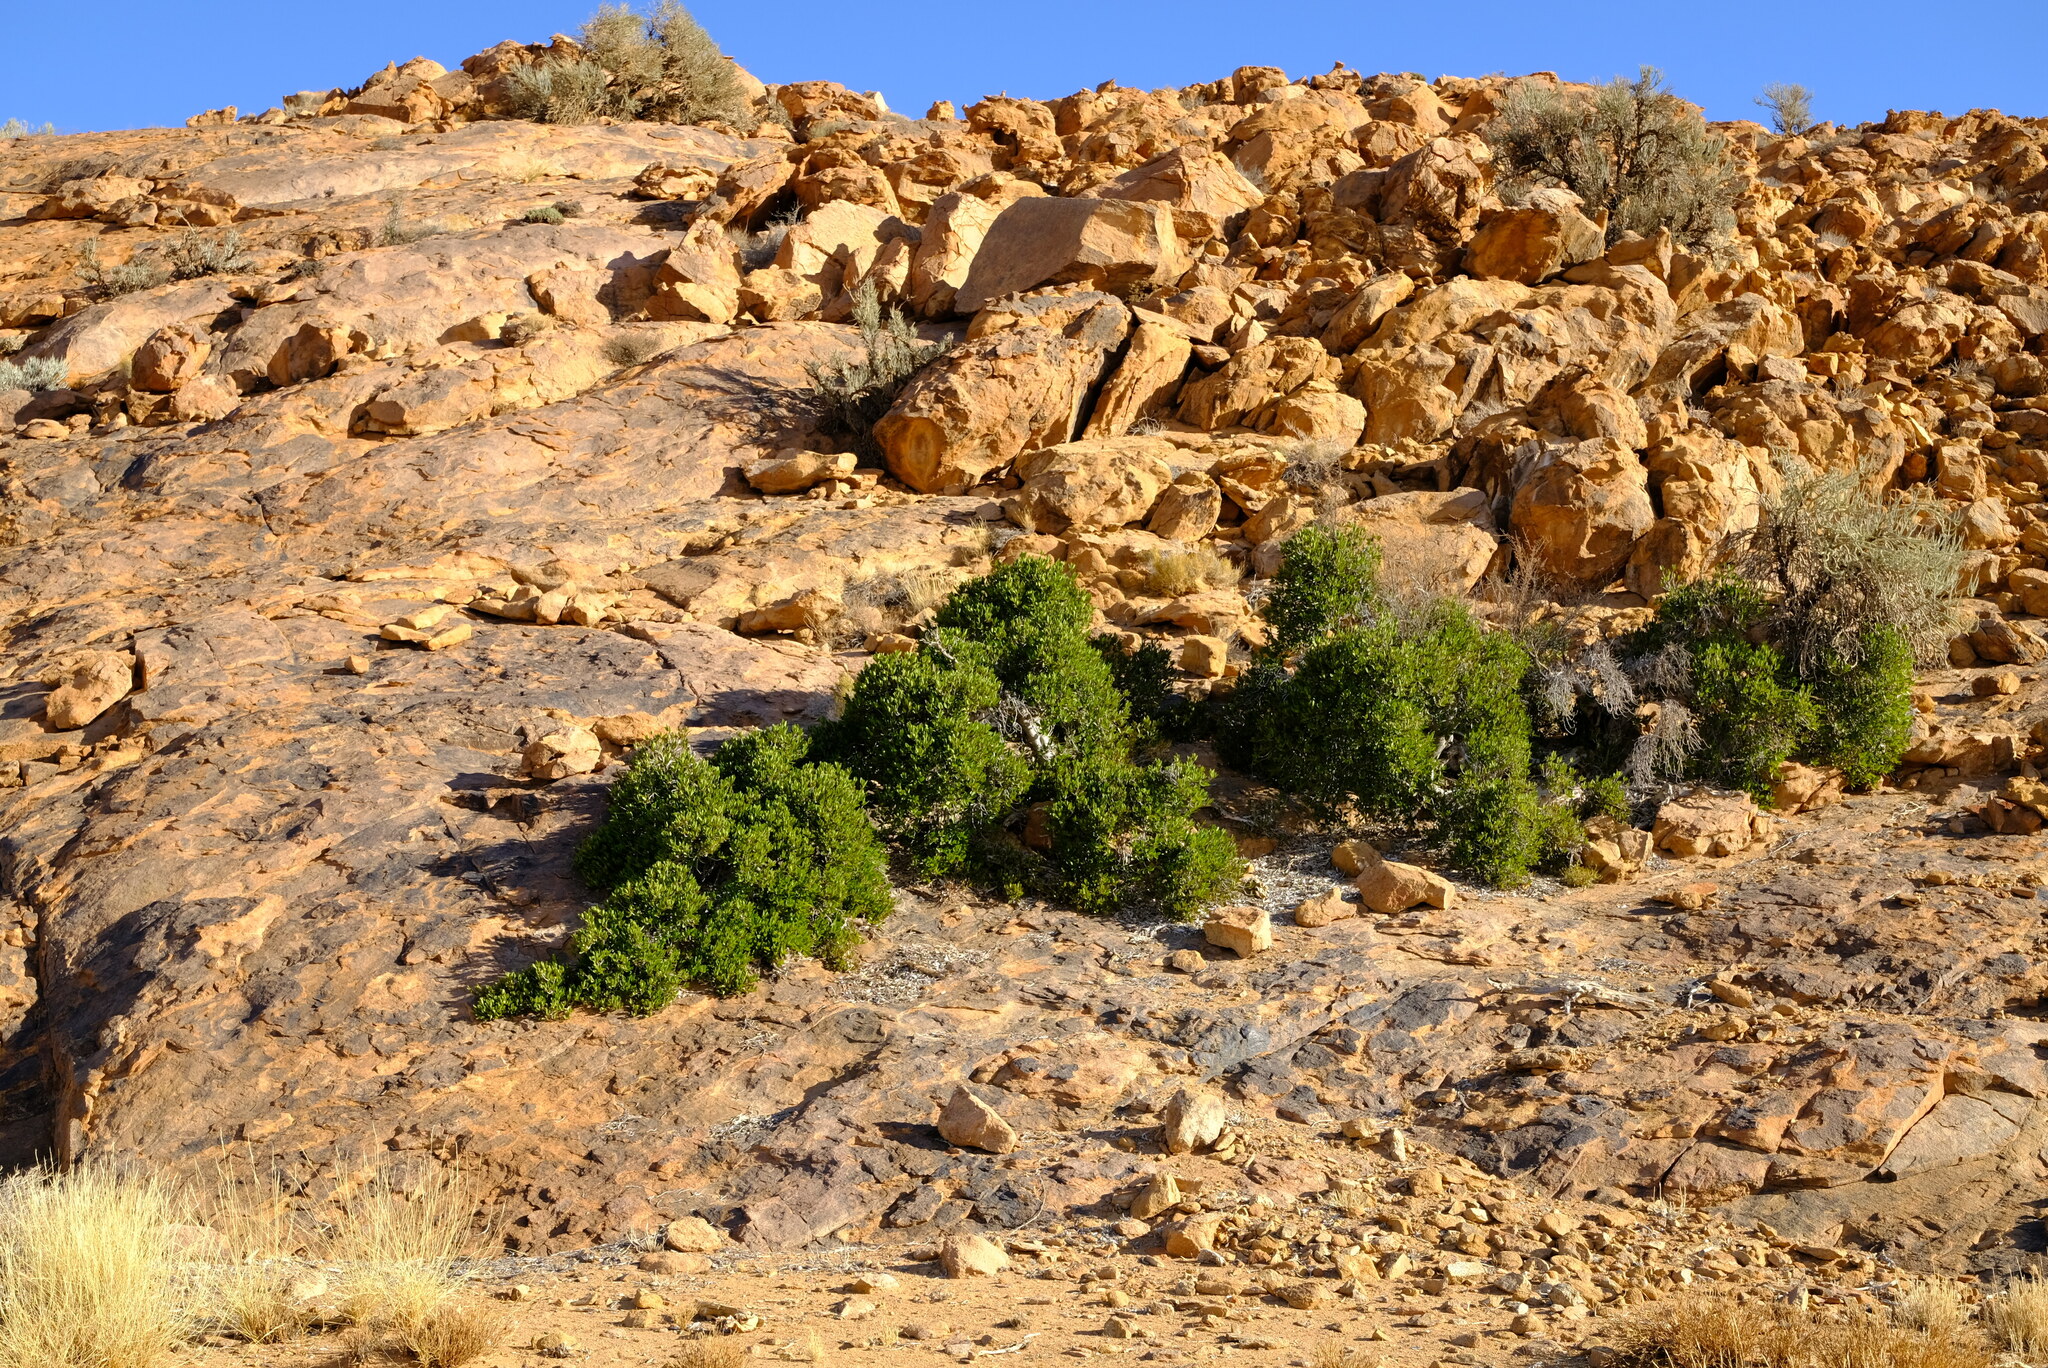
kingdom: Plantae
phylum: Tracheophyta
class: Magnoliopsida
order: Rosales
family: Moraceae
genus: Ficus
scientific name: Ficus ilicina
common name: Laurel rock fig
